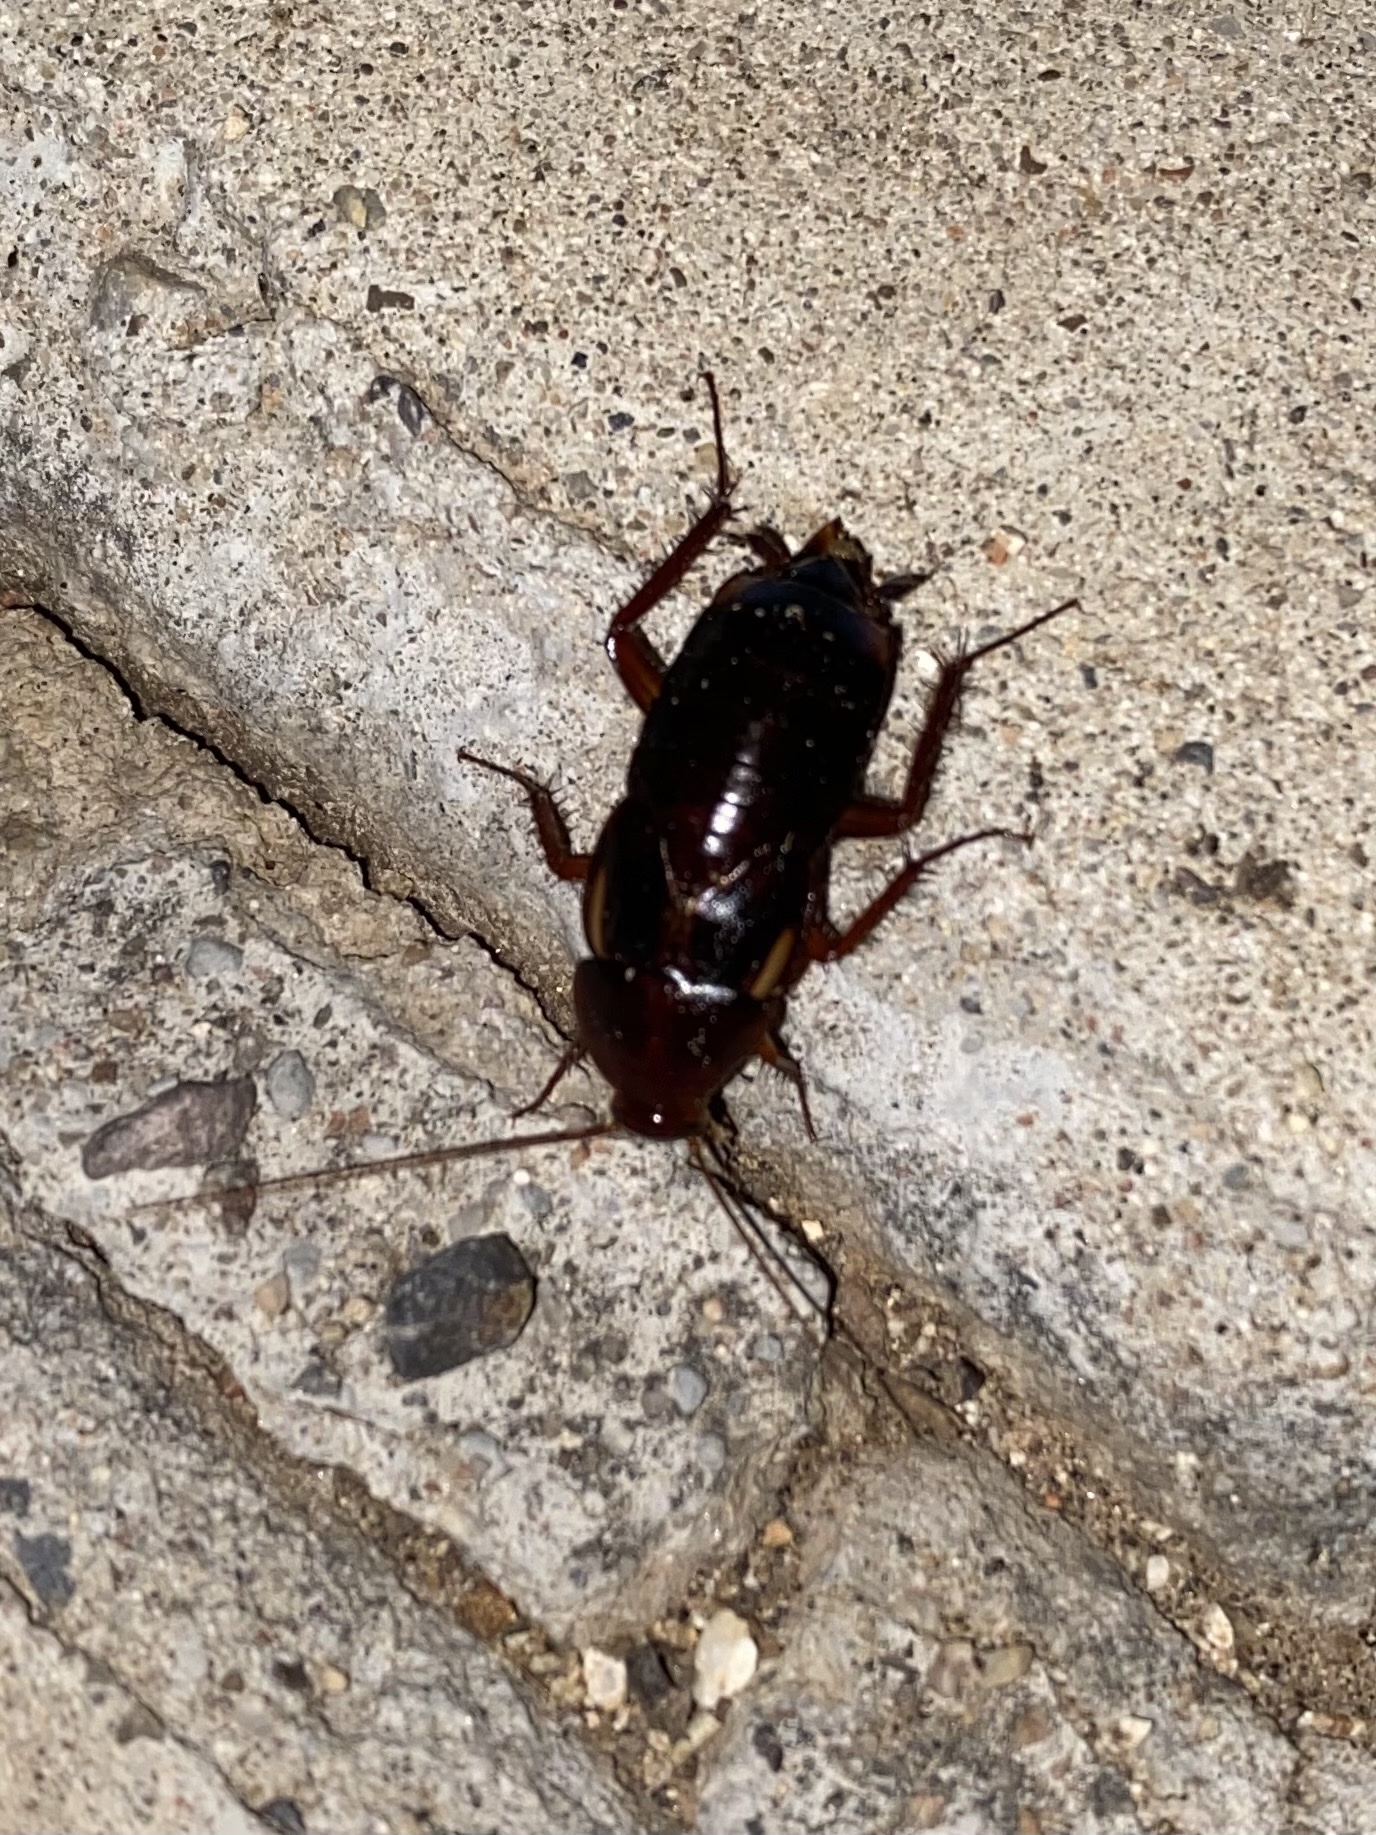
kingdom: Animalia
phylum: Arthropoda
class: Insecta
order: Blattodea
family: Blattidae
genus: Periplaneta
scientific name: Periplaneta lateralis
